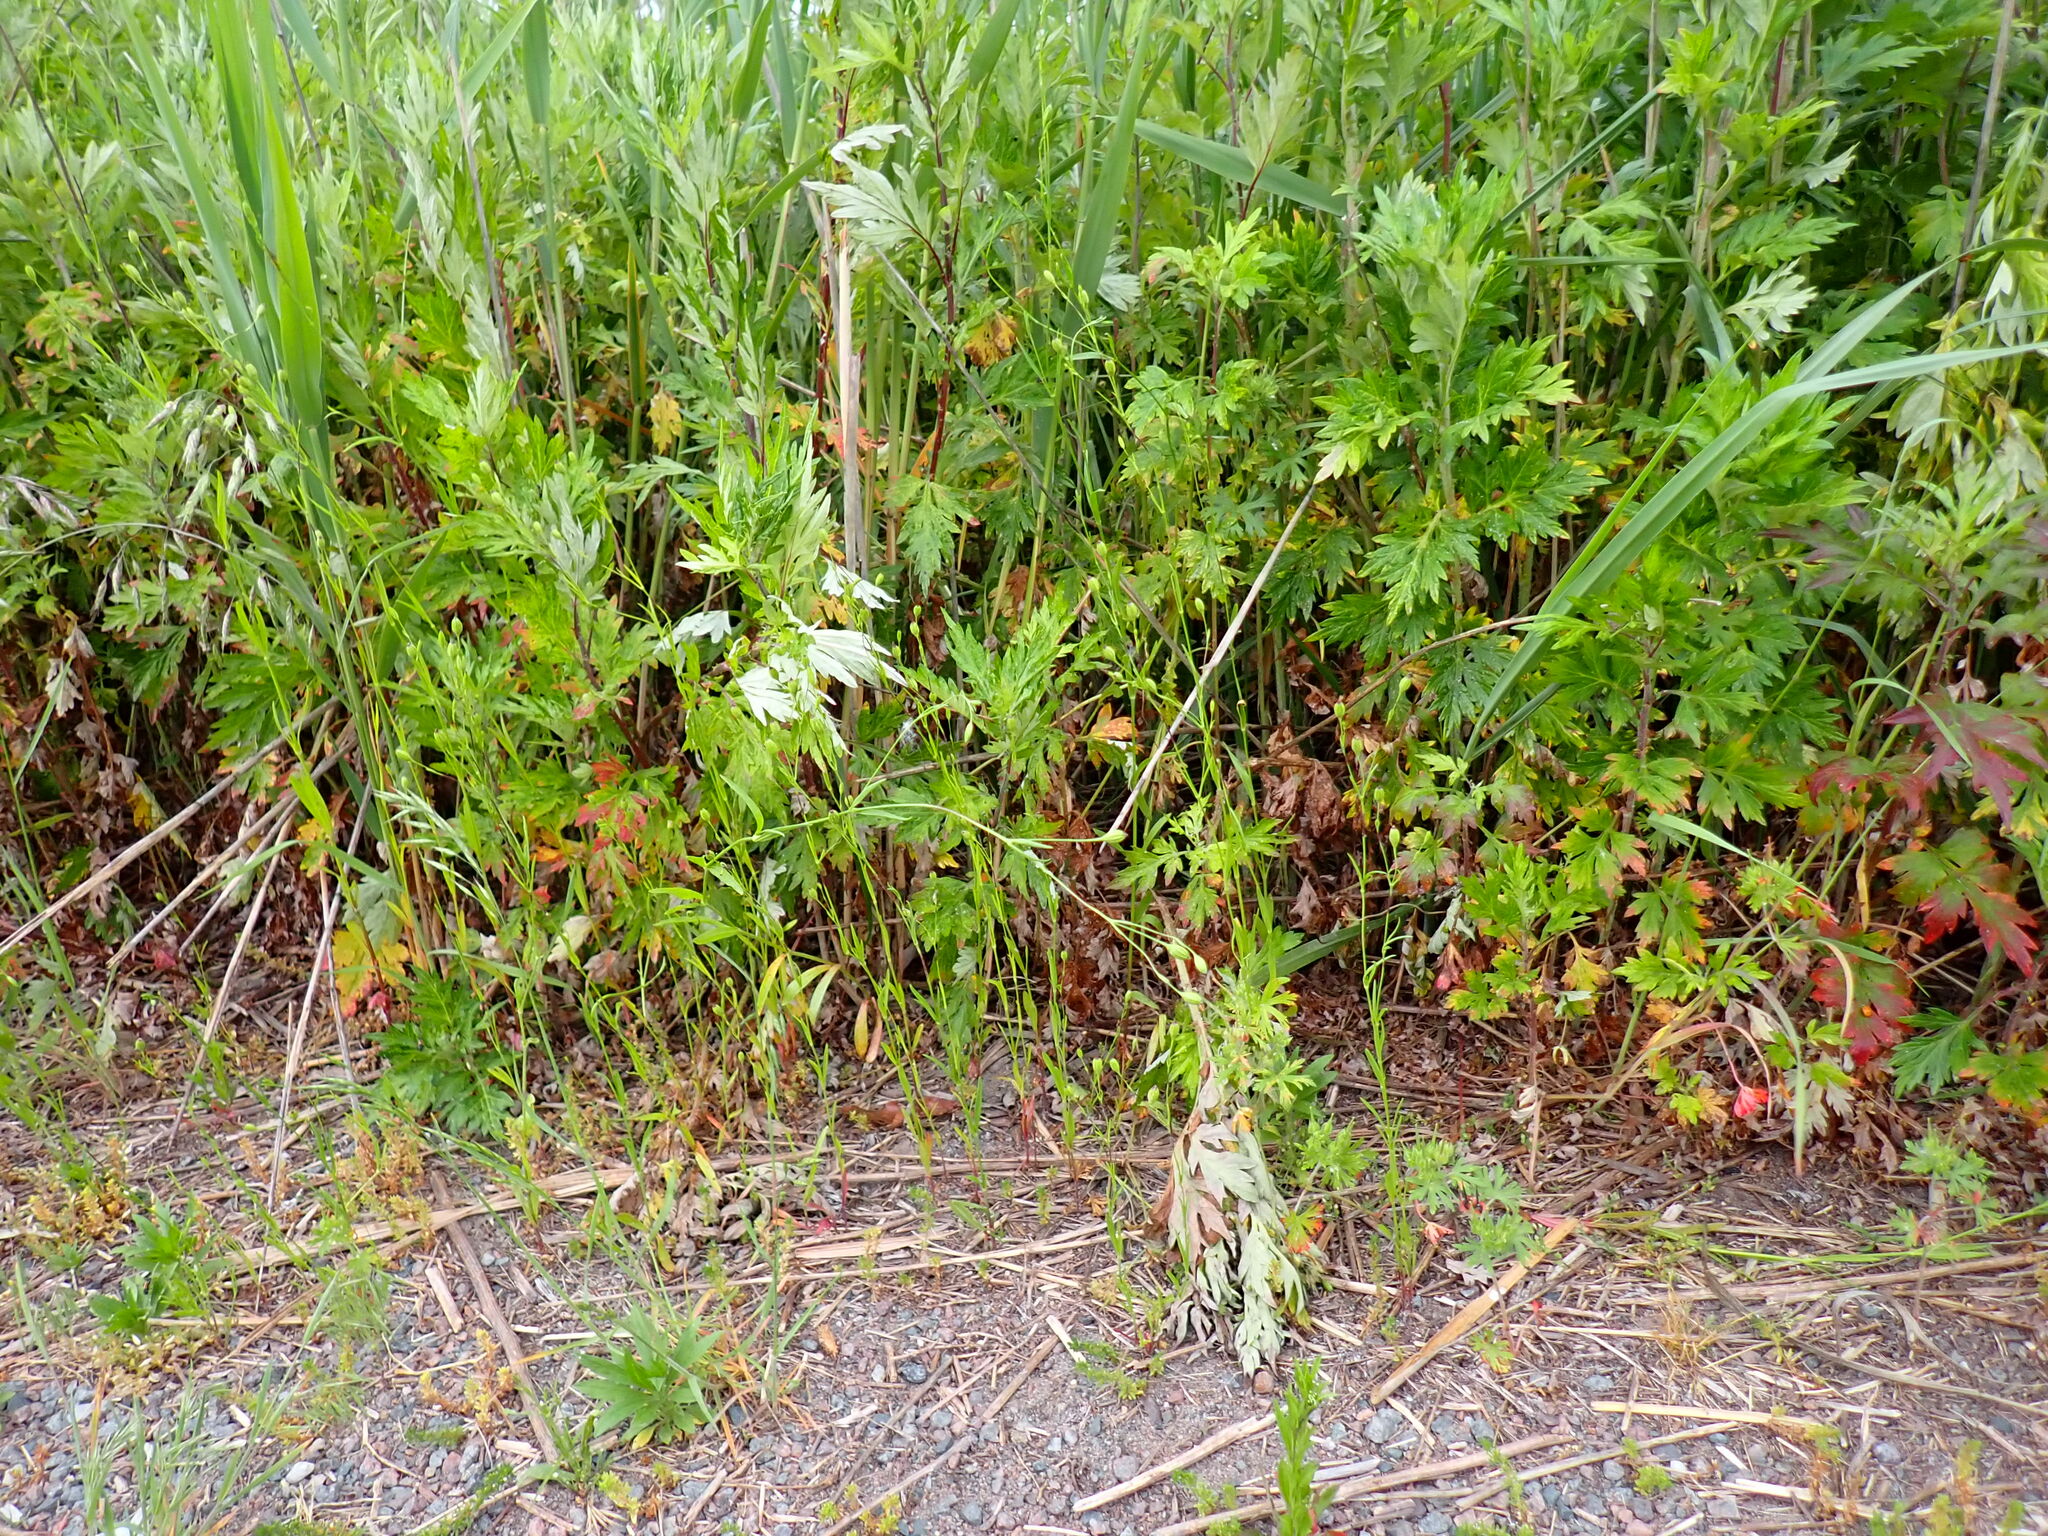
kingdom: Plantae
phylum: Tracheophyta
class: Magnoliopsida
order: Caryophyllales
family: Caryophyllaceae
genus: Silene
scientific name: Silene antirrhina
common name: Sleepy catchfly
